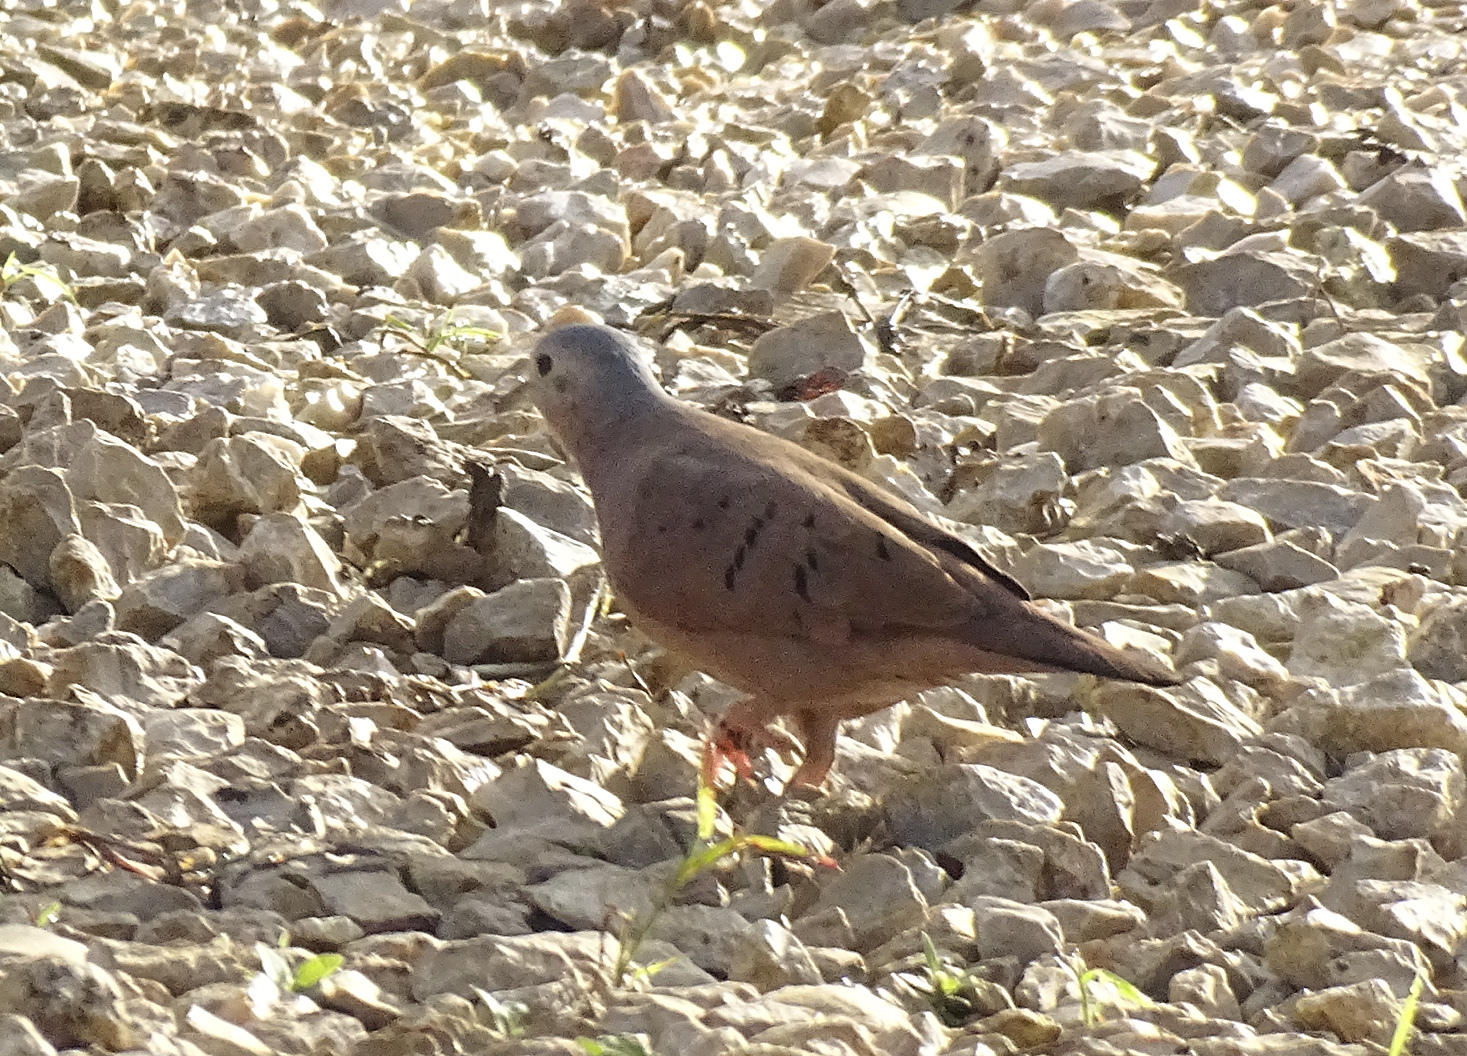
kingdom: Animalia
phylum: Chordata
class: Aves
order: Columbiformes
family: Columbidae
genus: Columbina
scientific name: Columbina talpacoti
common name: Ruddy ground dove
